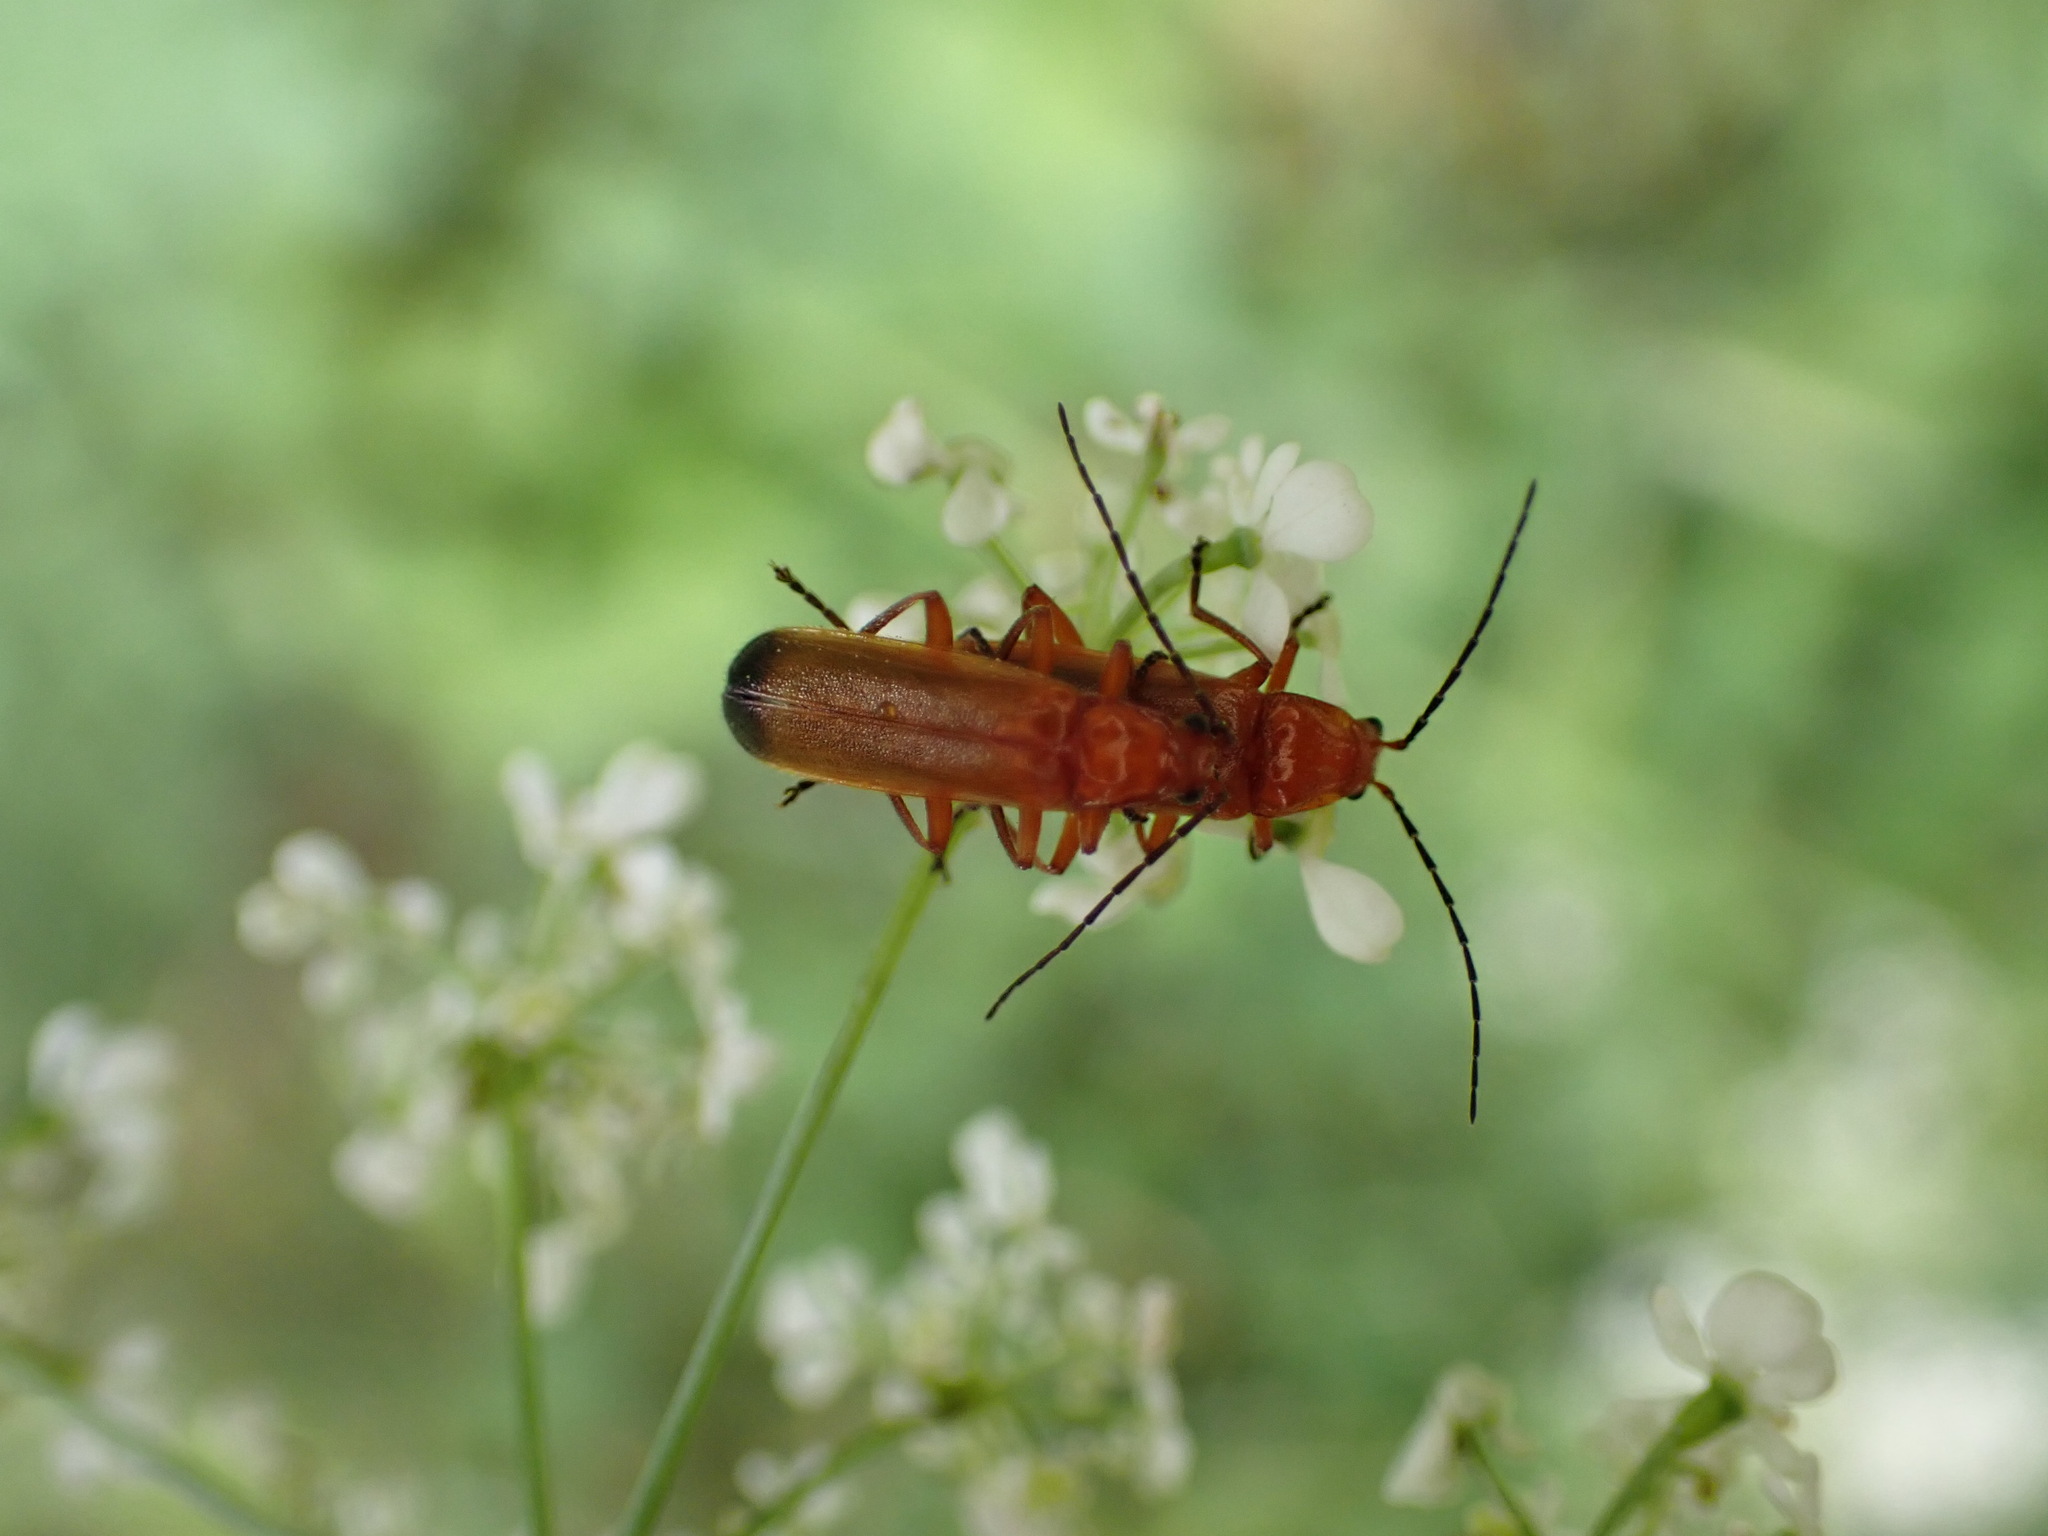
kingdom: Animalia
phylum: Arthropoda
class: Insecta
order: Coleoptera
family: Cantharidae
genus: Rhagonycha
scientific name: Rhagonycha fulva
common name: Common red soldier beetle
